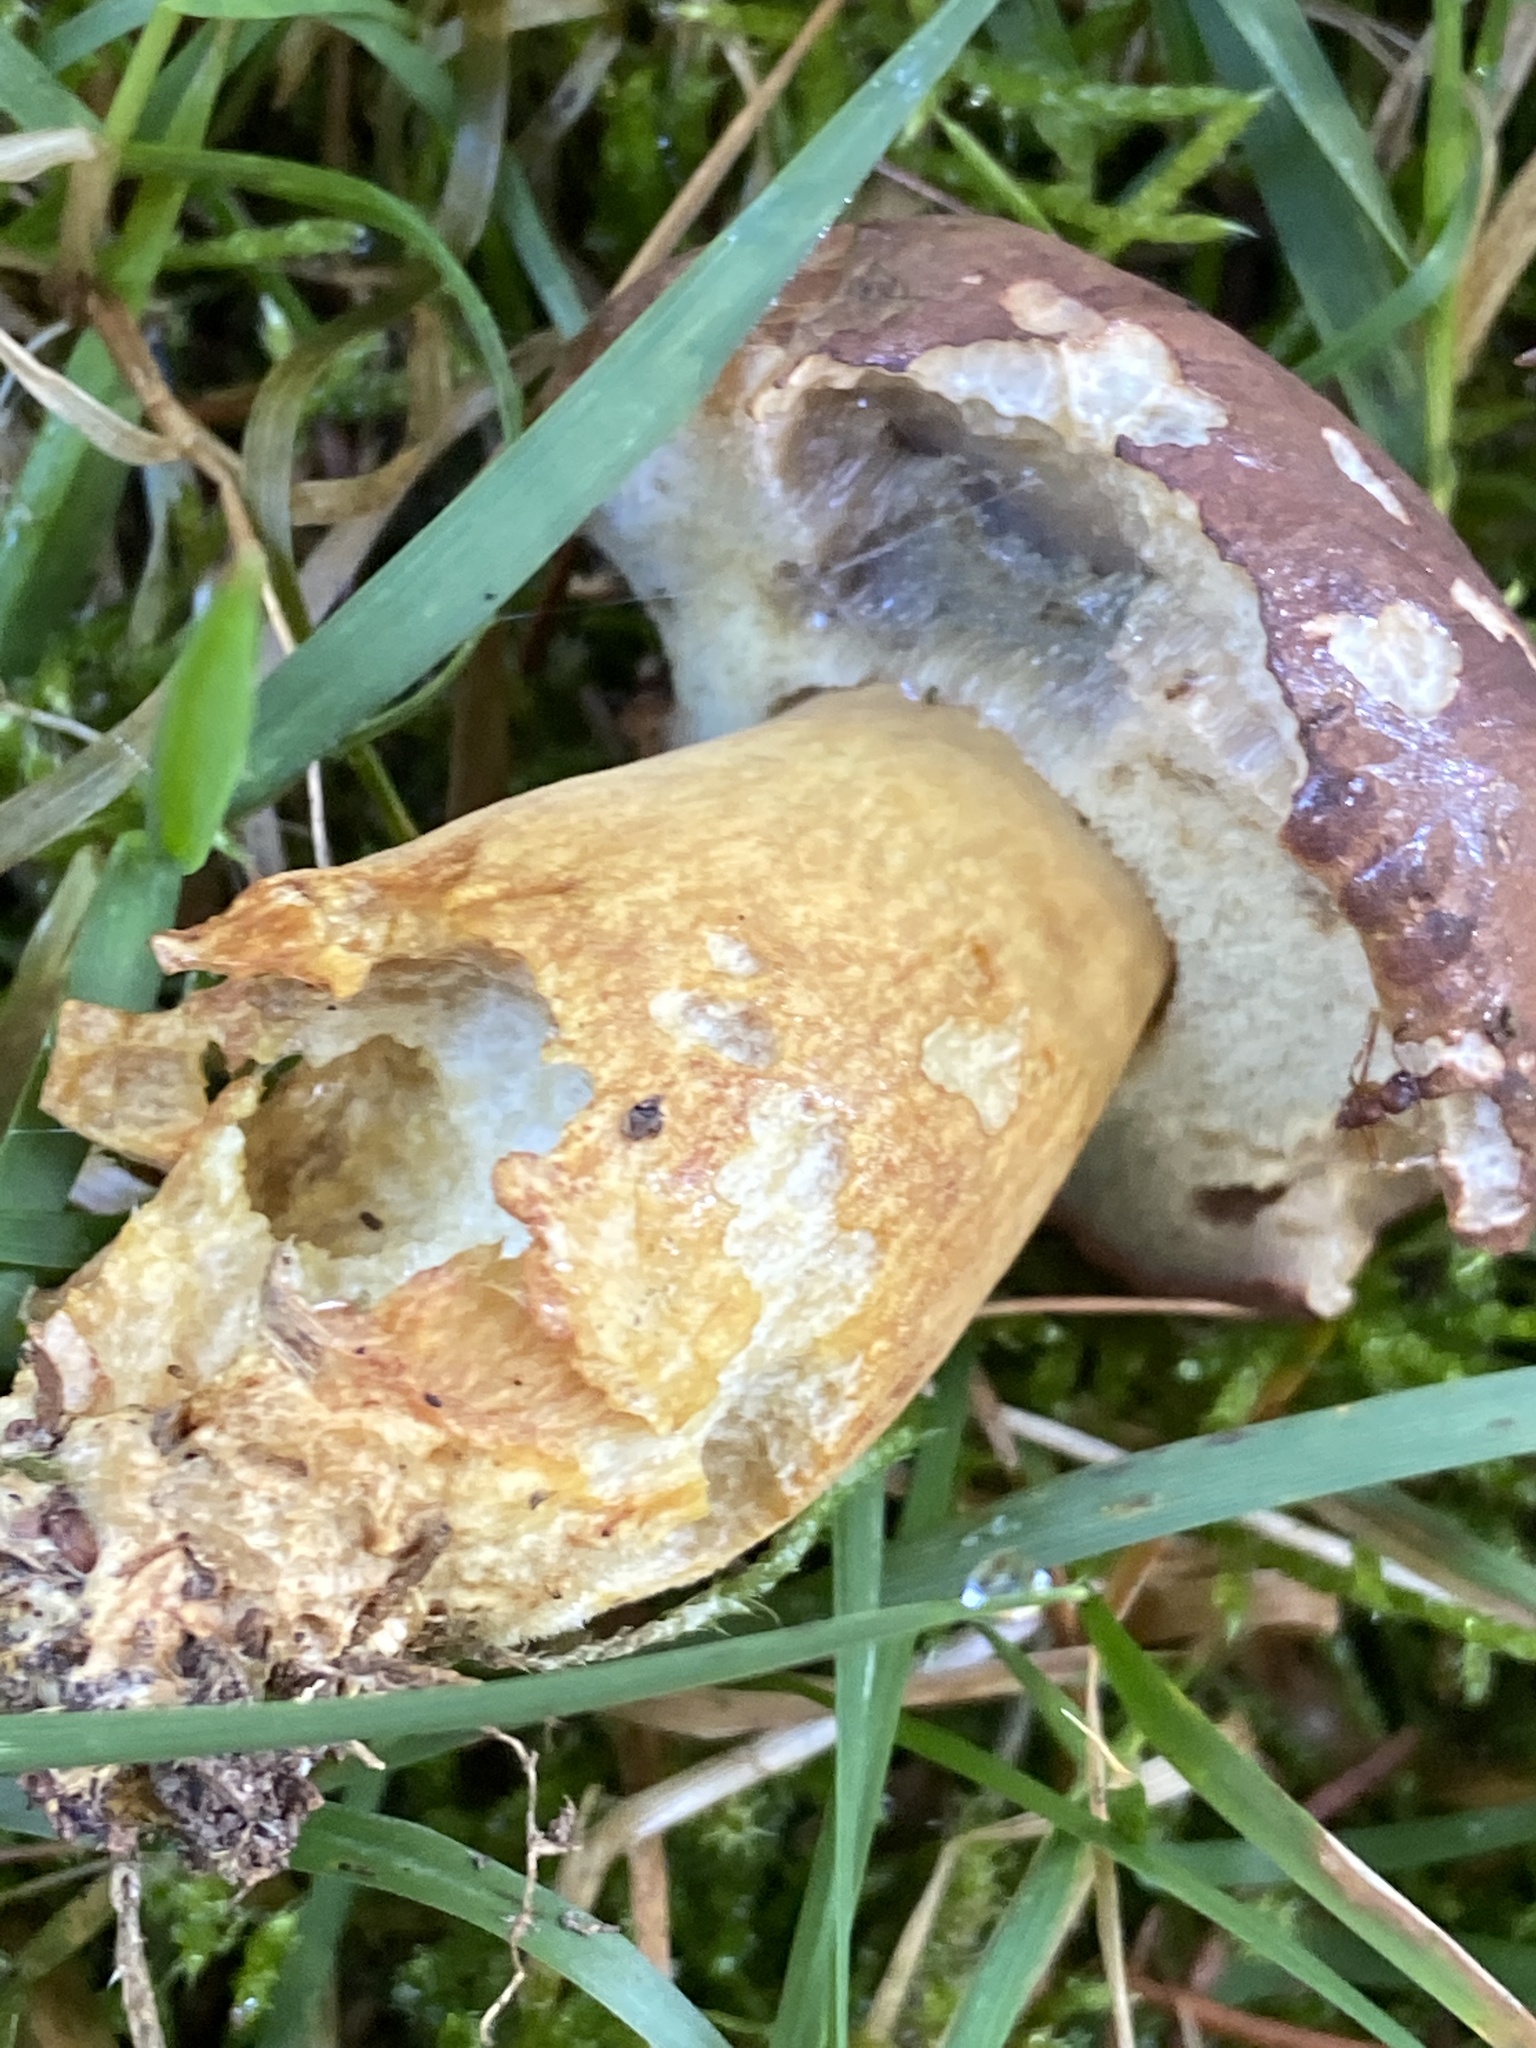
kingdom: Fungi
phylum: Basidiomycota
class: Agaricomycetes
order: Boletales
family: Boletaceae
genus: Imleria
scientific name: Imleria badia
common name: Bay bolete
